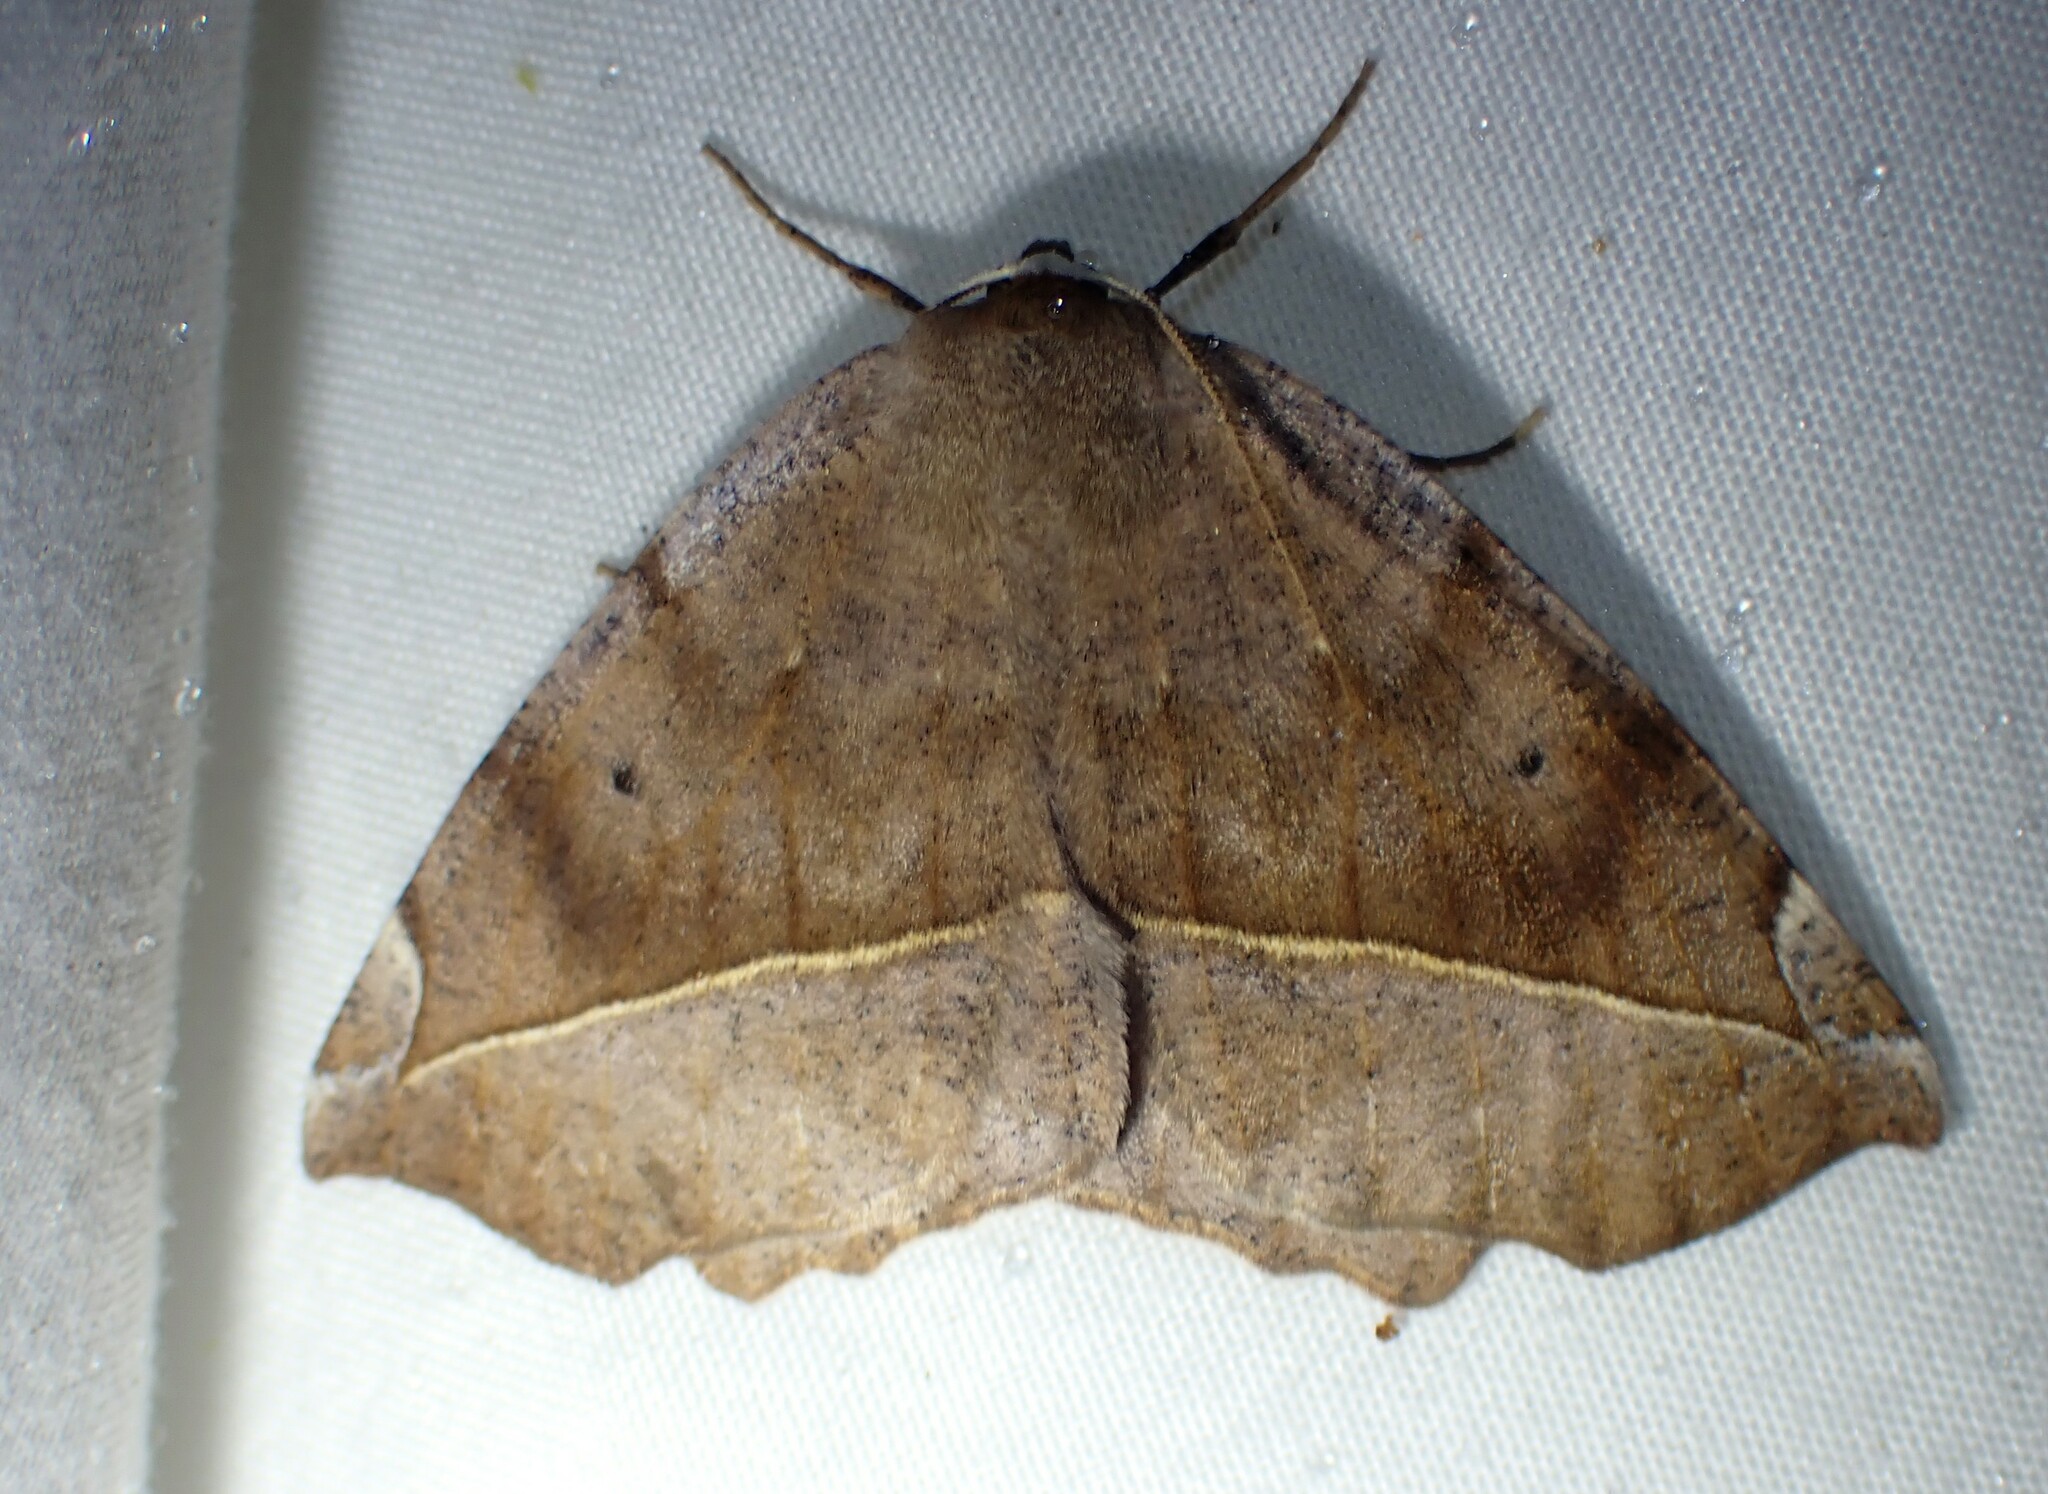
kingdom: Animalia
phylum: Arthropoda
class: Insecta
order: Lepidoptera
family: Geometridae
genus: Eutrapela
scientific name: Eutrapela clemataria
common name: Curved-toothed geometer
